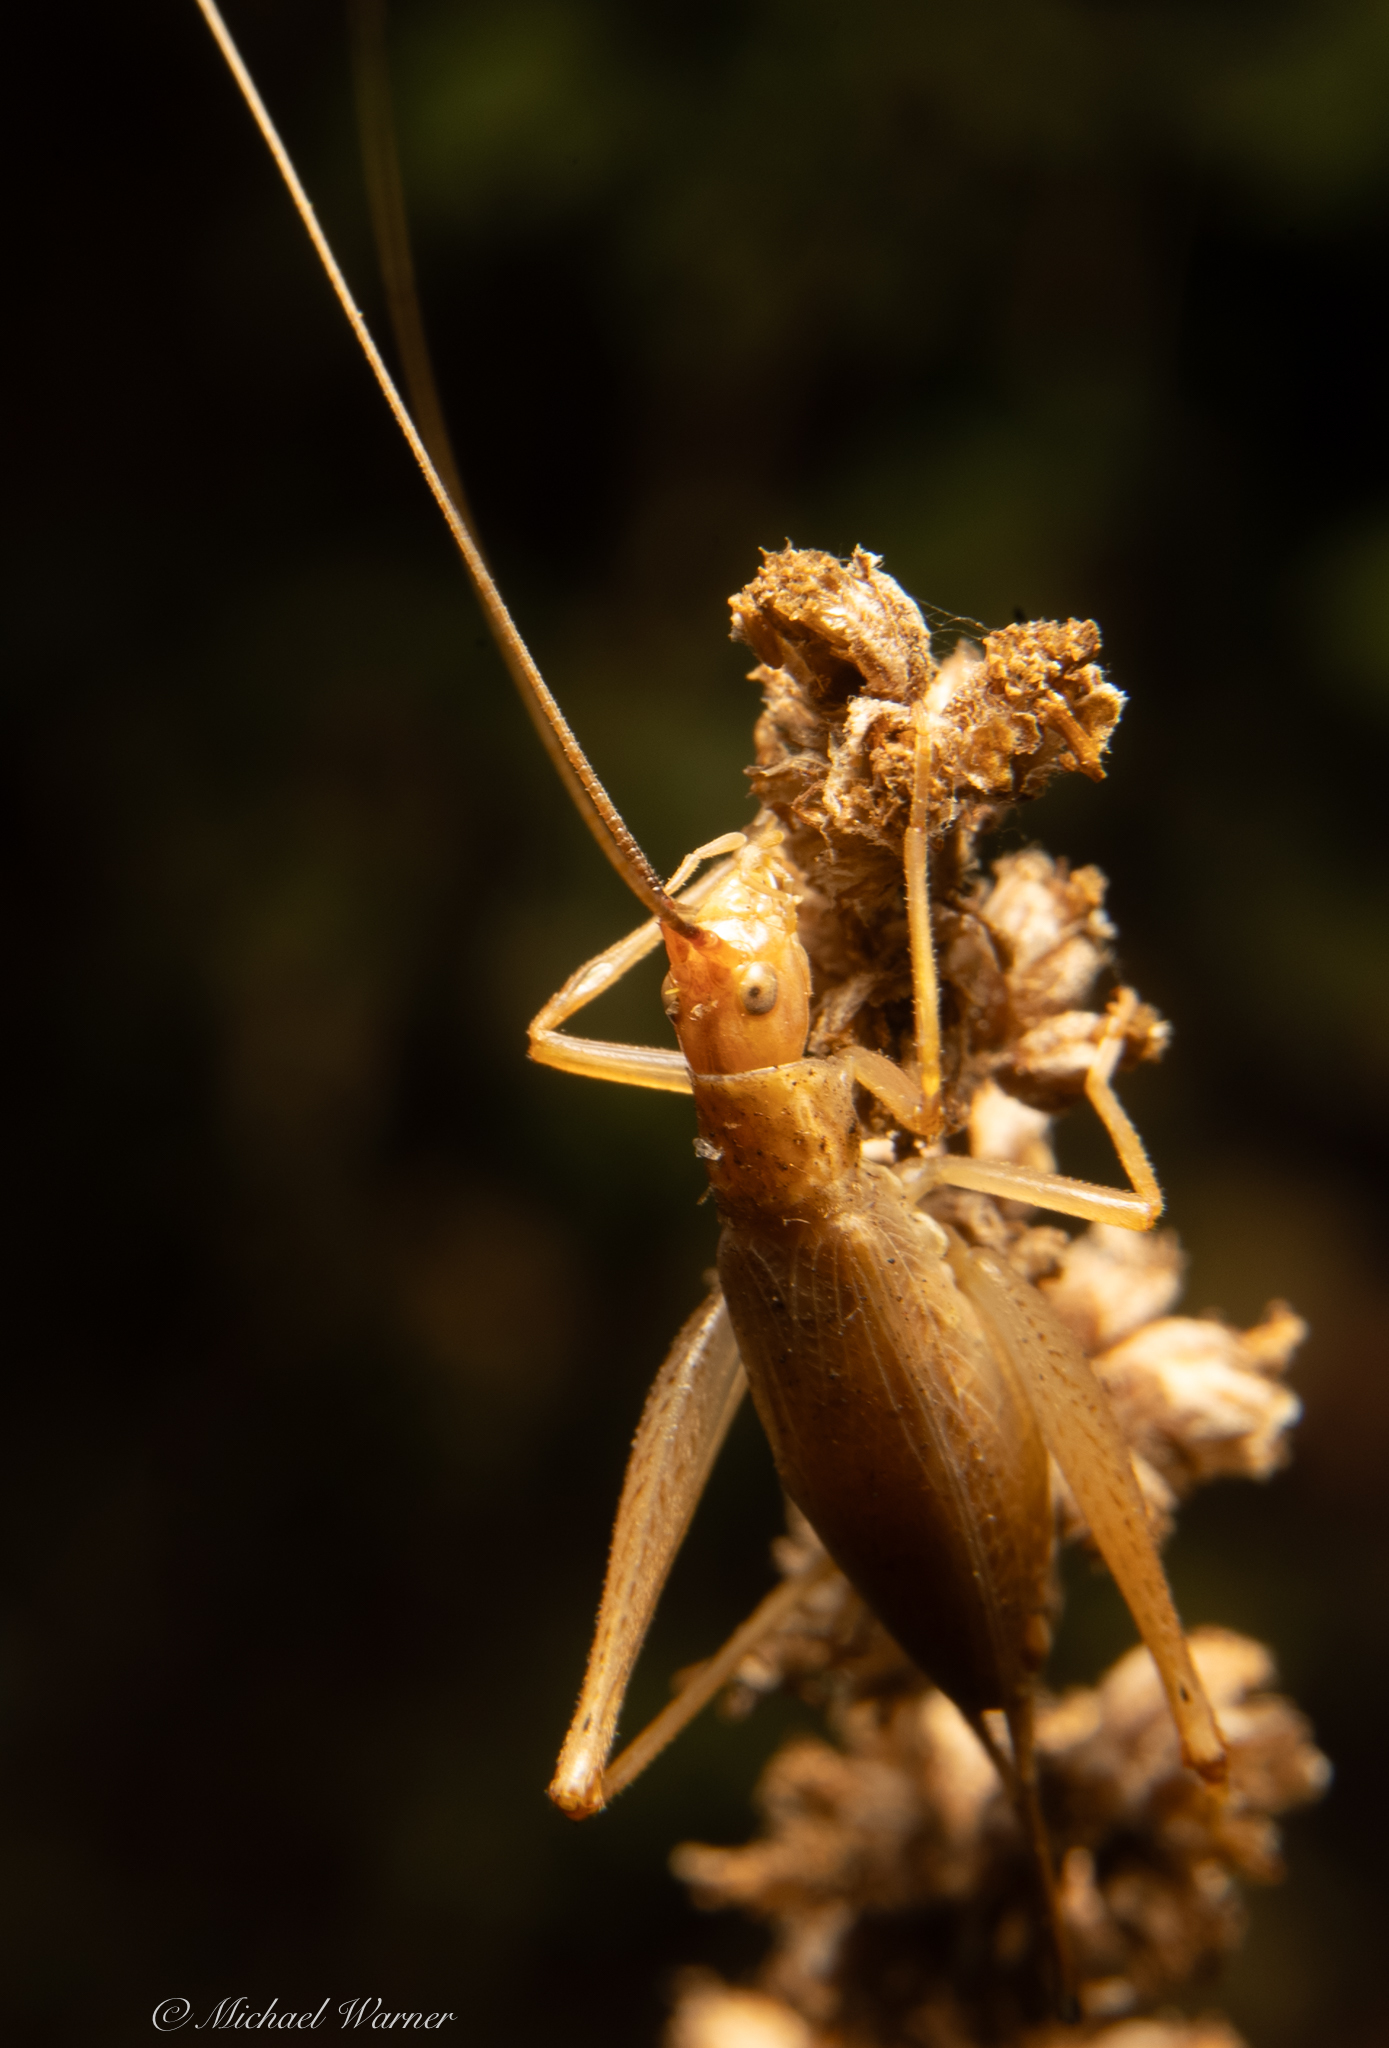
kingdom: Animalia
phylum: Arthropoda
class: Insecta
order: Orthoptera
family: Gryllidae
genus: Oecanthus
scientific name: Oecanthus californicus
